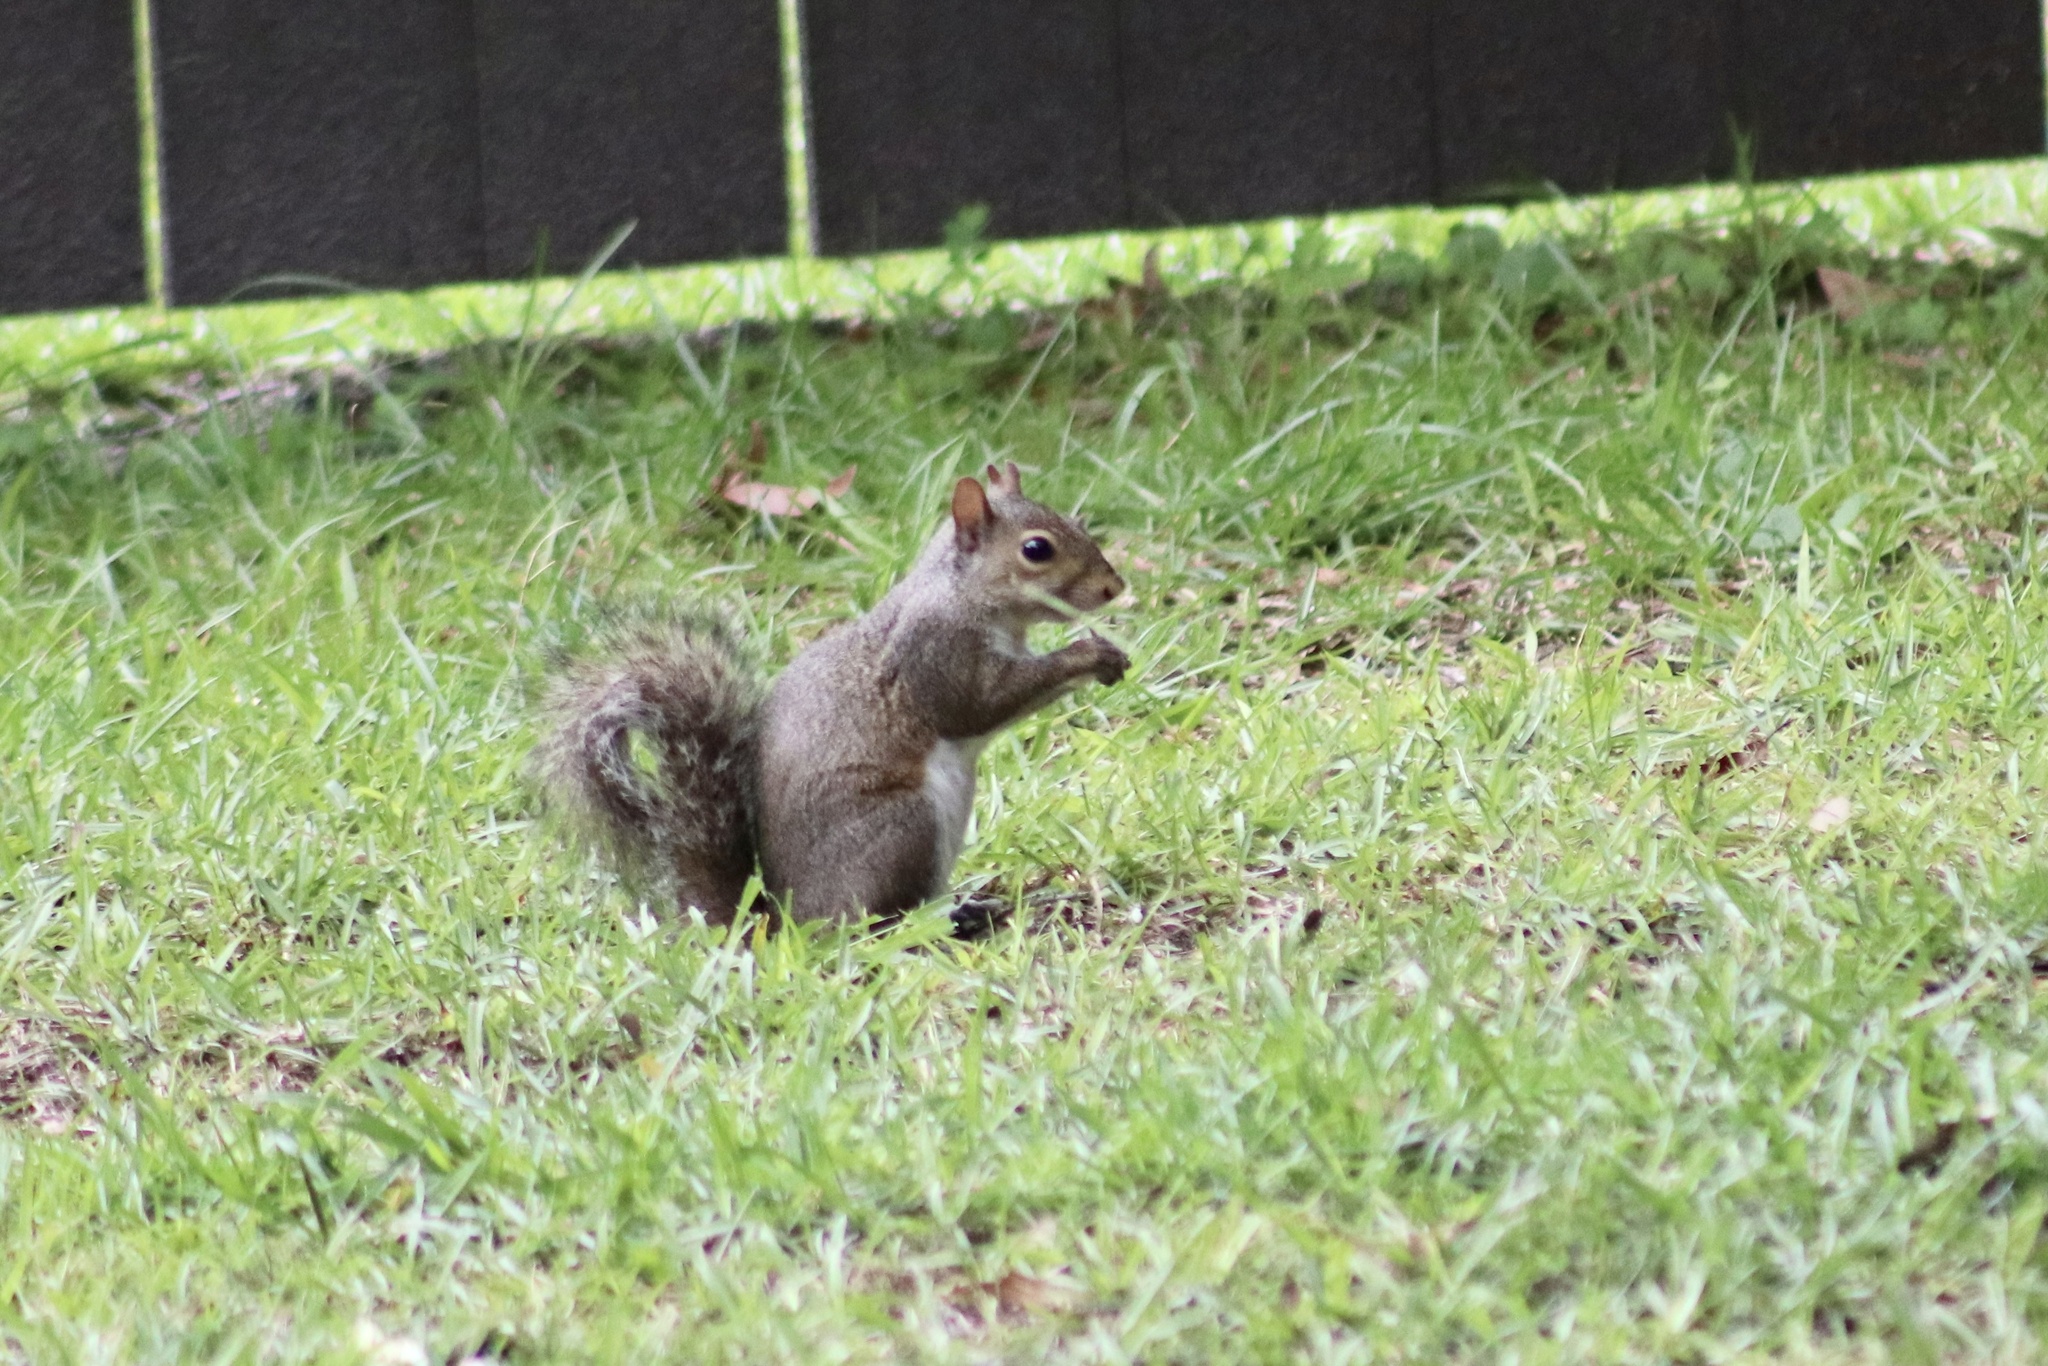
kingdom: Animalia
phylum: Chordata
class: Mammalia
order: Rodentia
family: Sciuridae
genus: Sciurus
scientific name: Sciurus carolinensis
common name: Eastern gray squirrel
